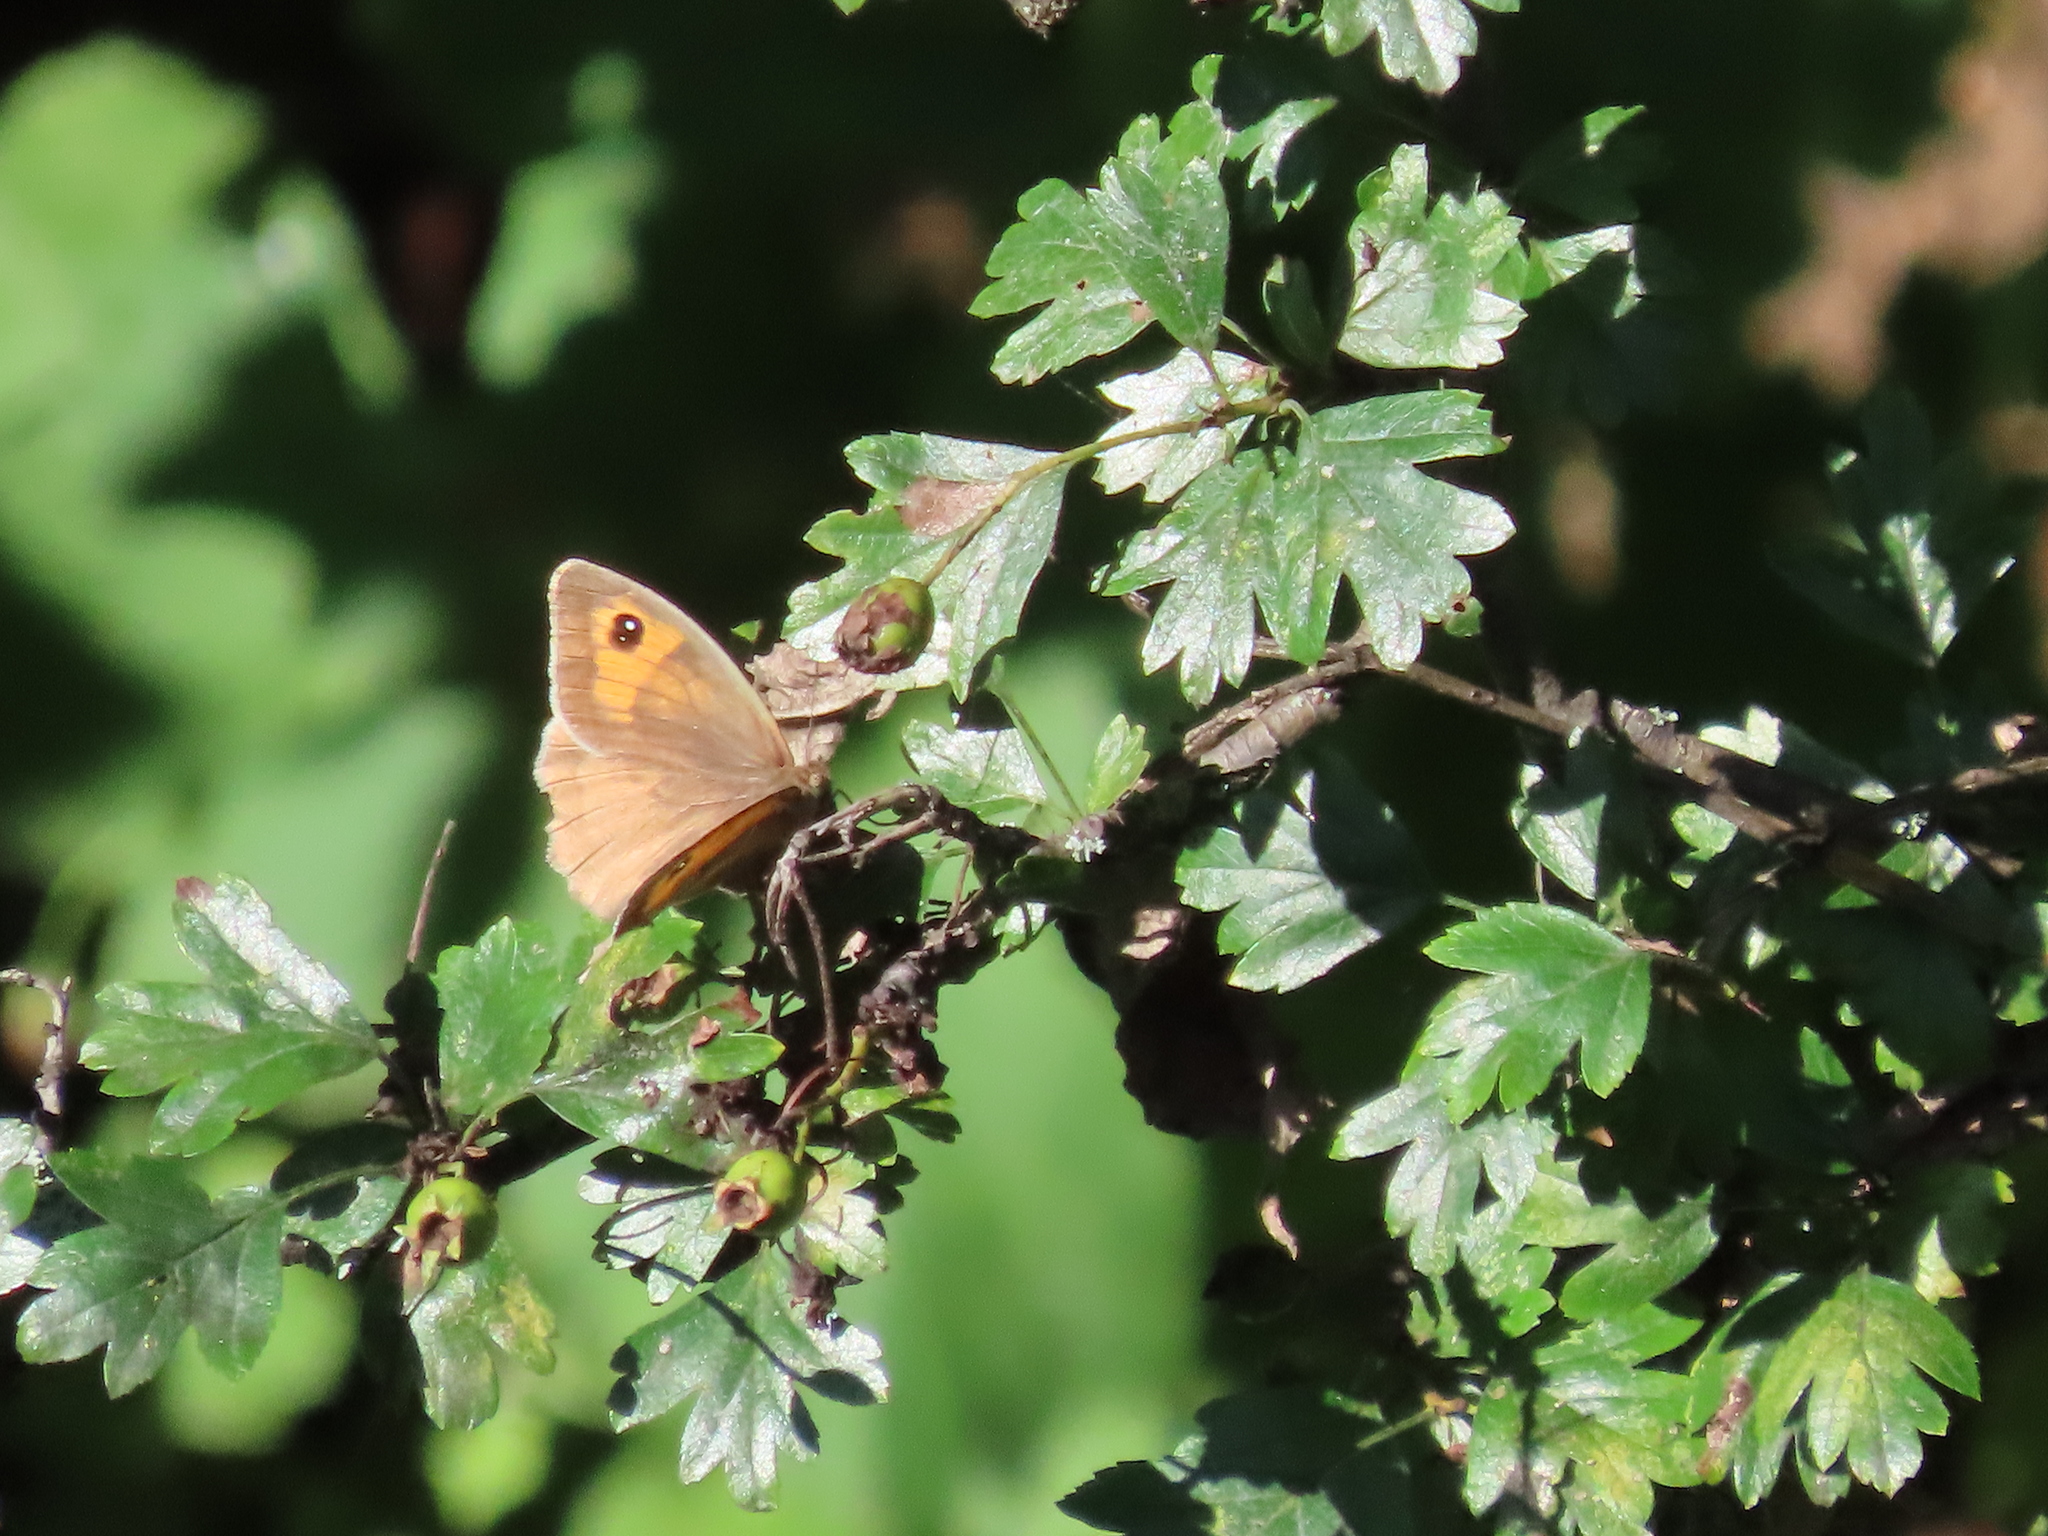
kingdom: Animalia
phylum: Arthropoda
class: Insecta
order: Lepidoptera
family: Nymphalidae
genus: Maniola
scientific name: Maniola jurtina
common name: Meadow brown
